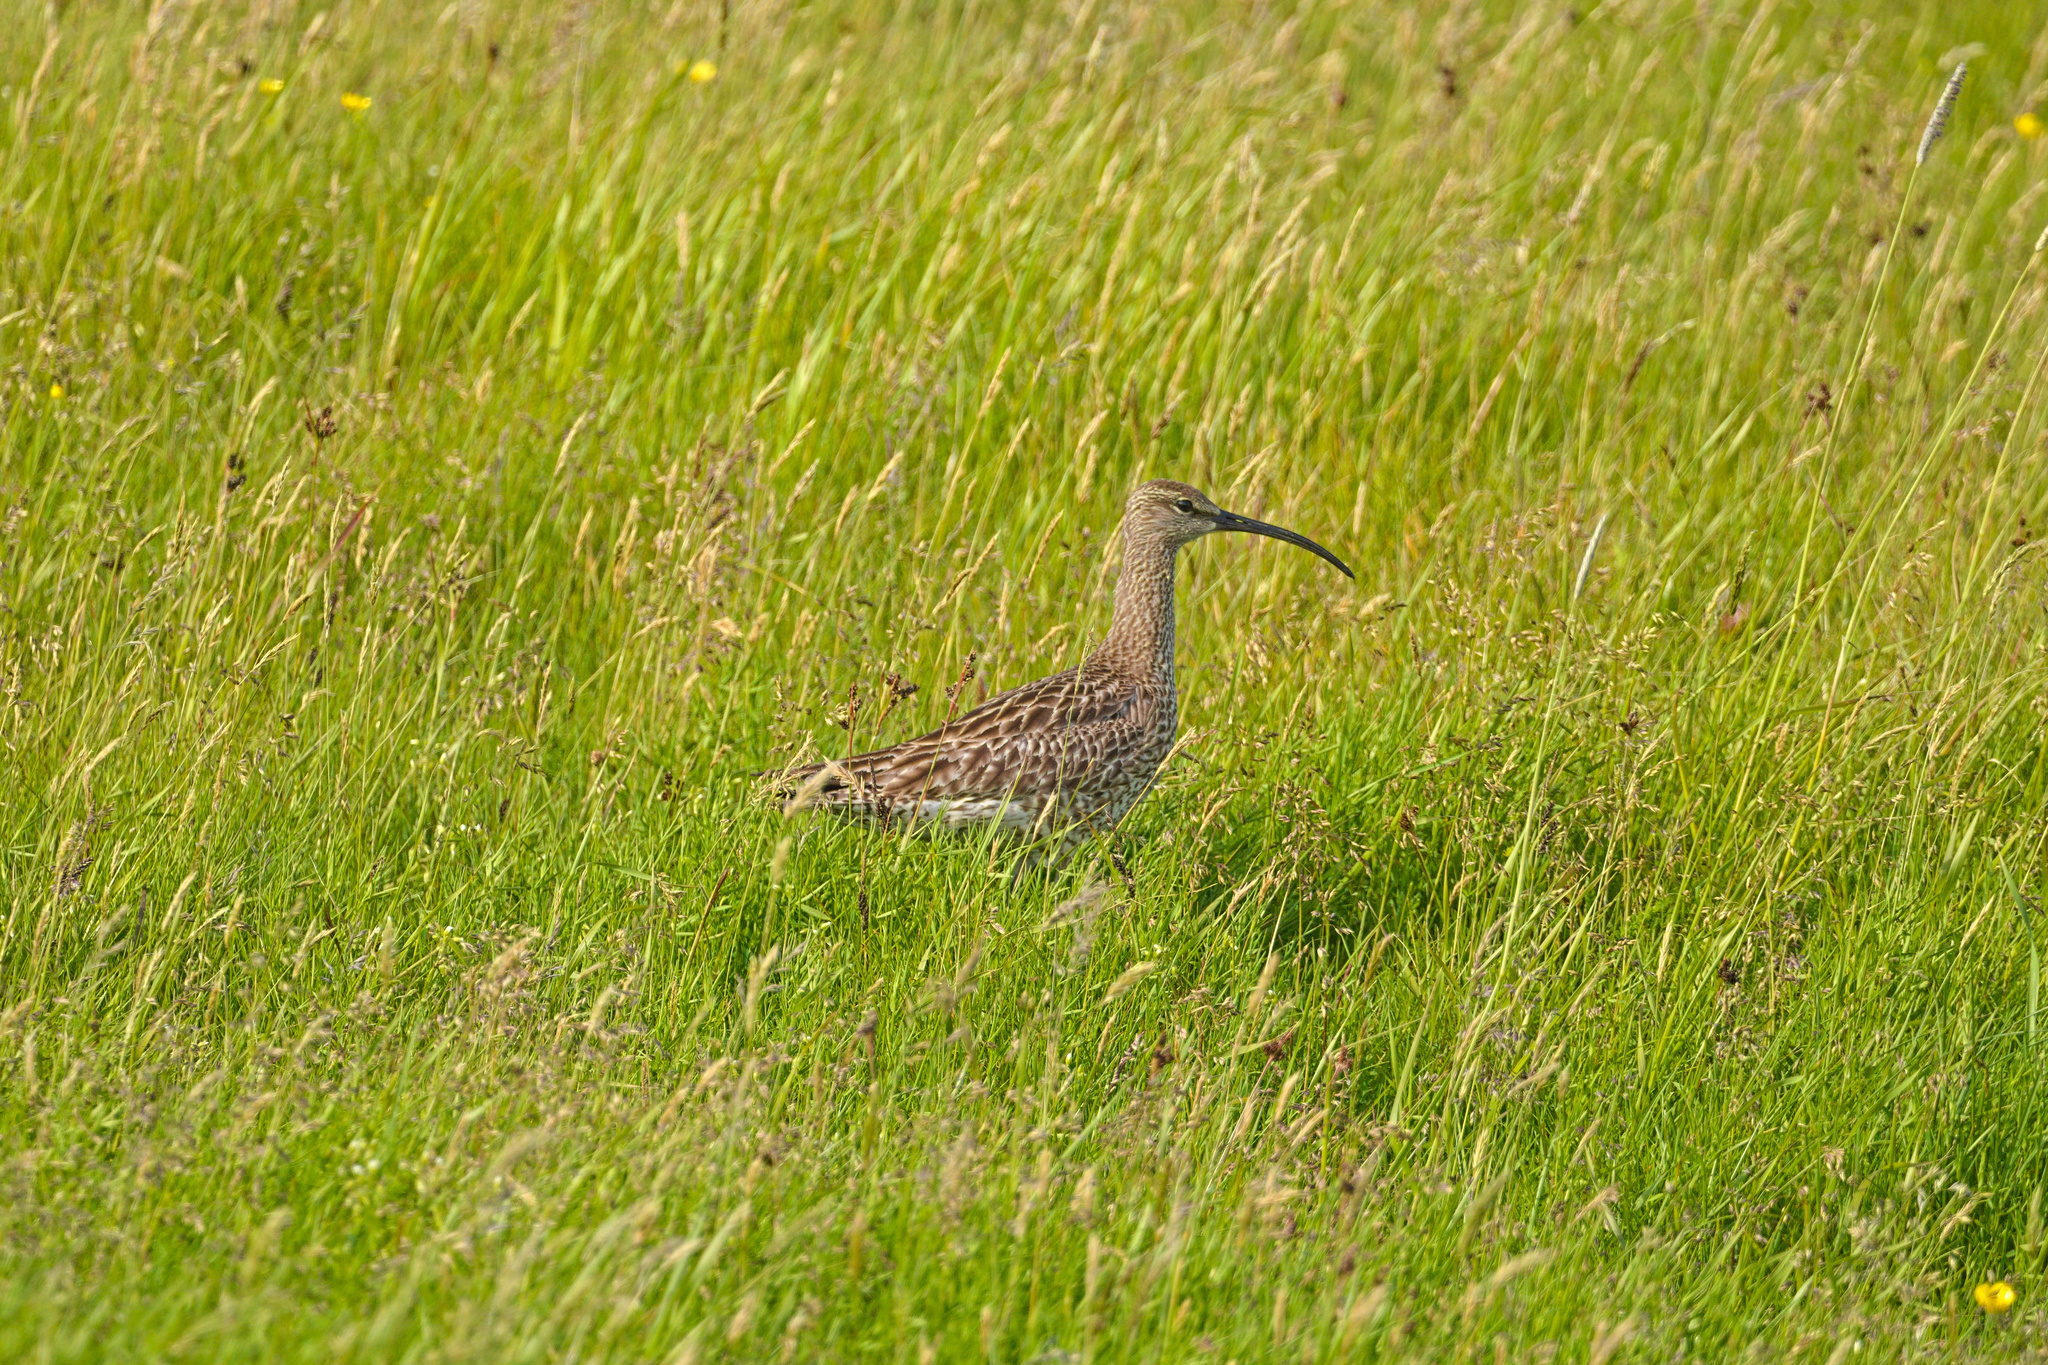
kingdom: Animalia
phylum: Chordata
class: Aves
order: Charadriiformes
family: Scolopacidae
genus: Numenius
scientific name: Numenius phaeopus
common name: Whimbrel
